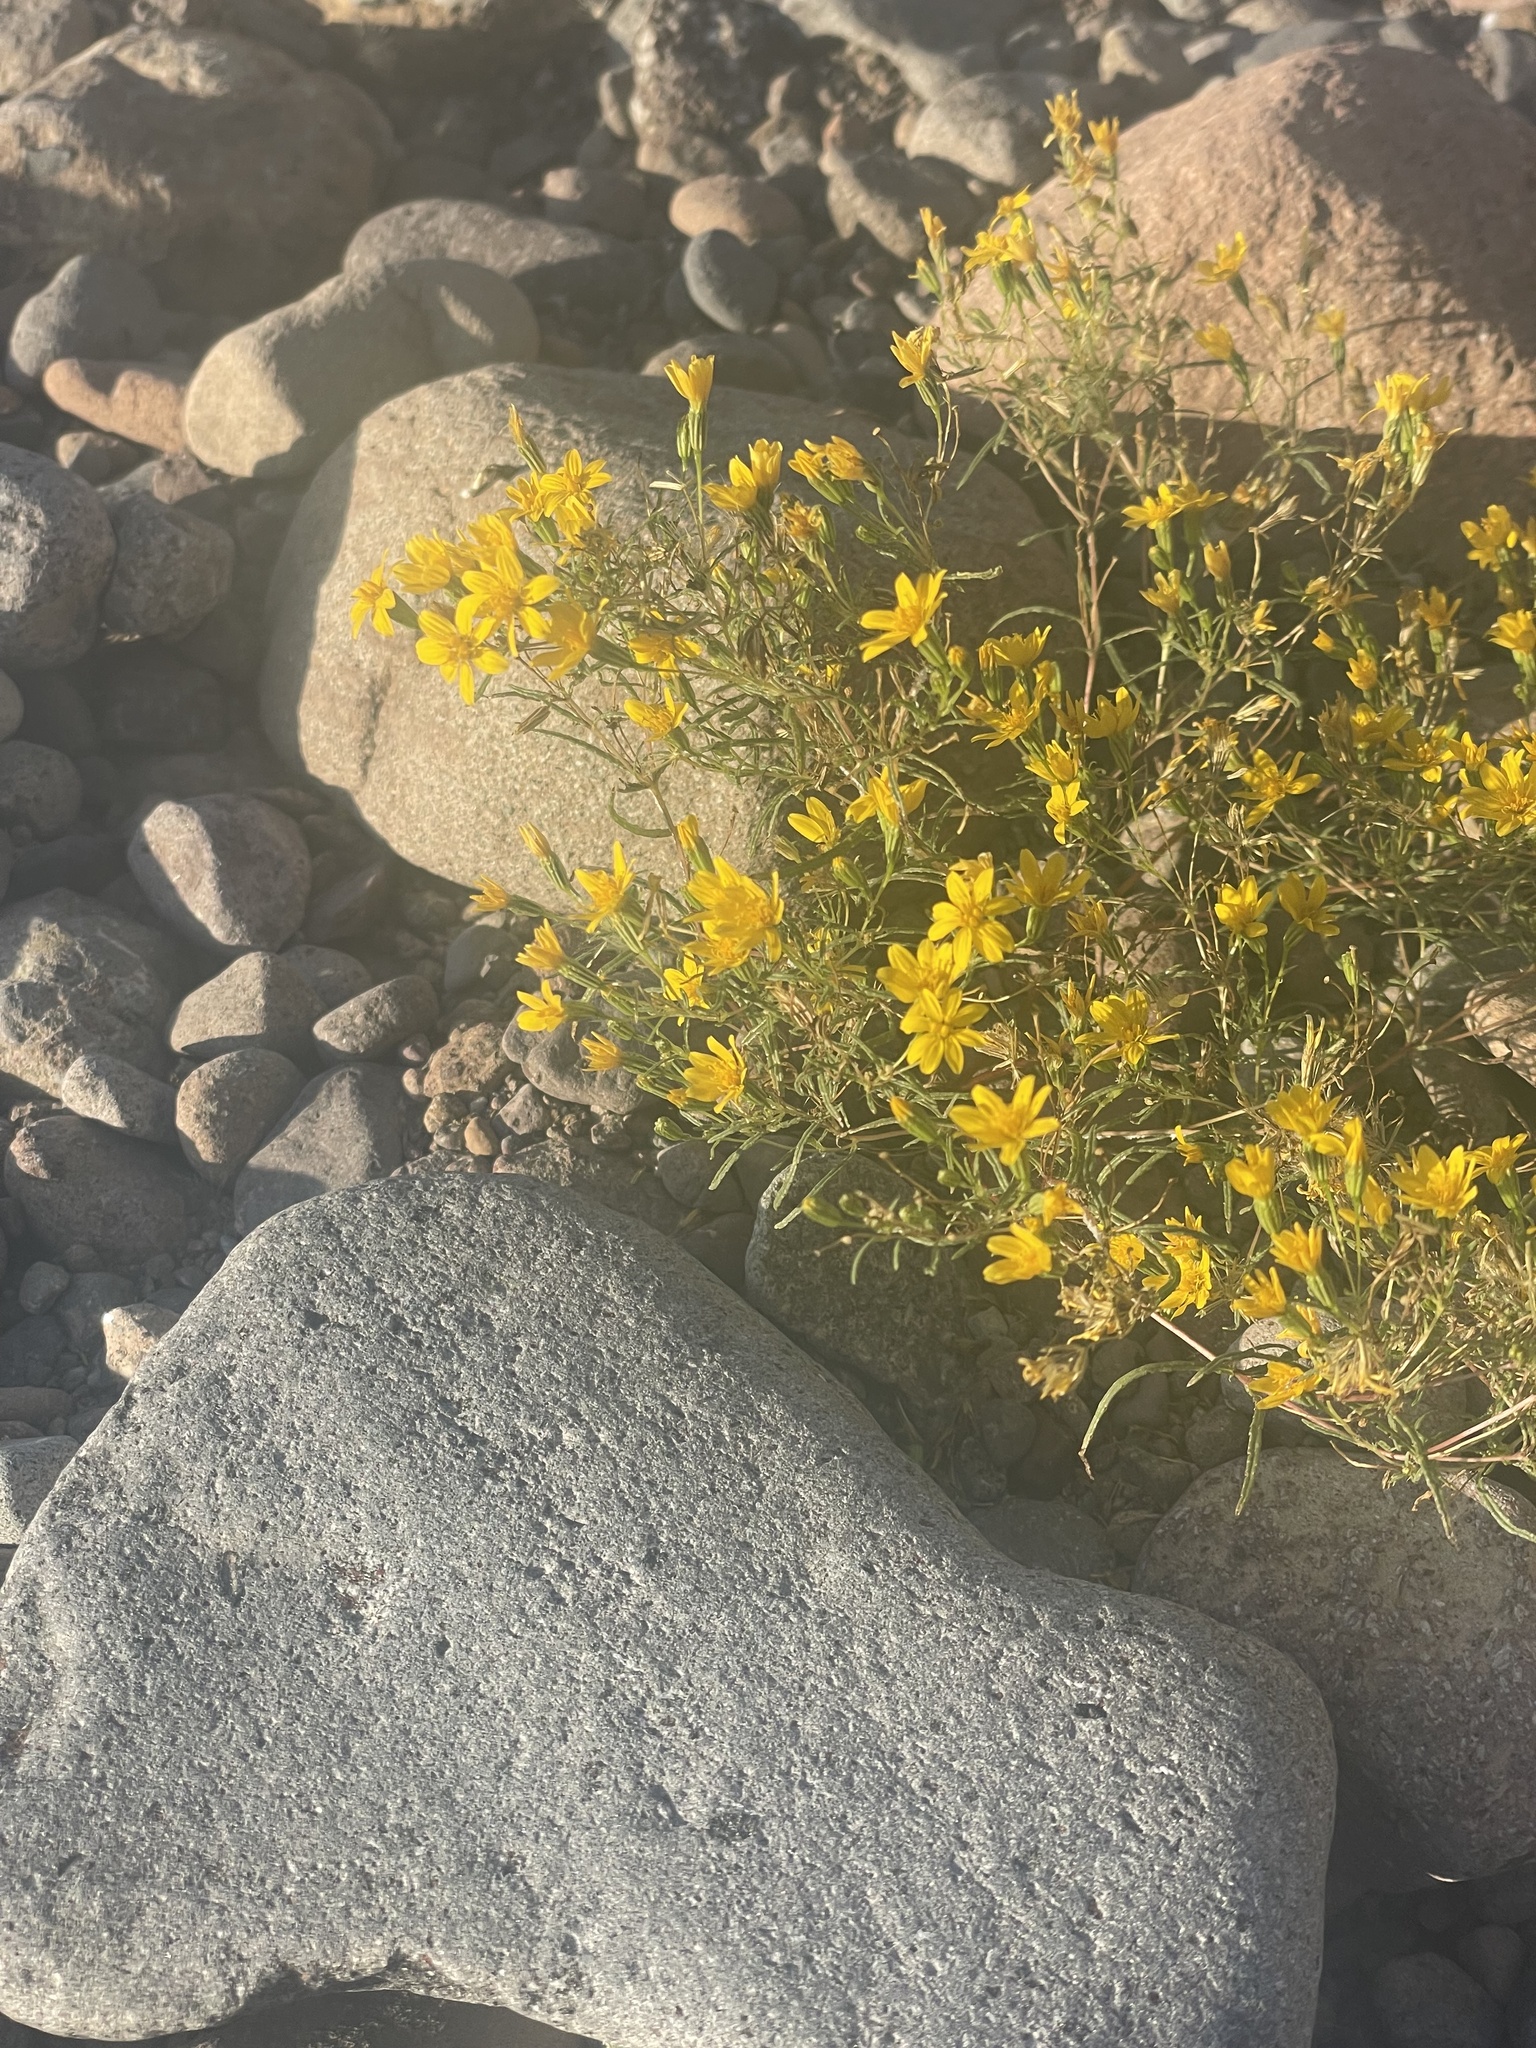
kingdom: Plantae
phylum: Tracheophyta
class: Magnoliopsida
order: Asterales
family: Asteraceae
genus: Pectis
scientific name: Pectis papposa
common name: Many-bristle chinchweed
